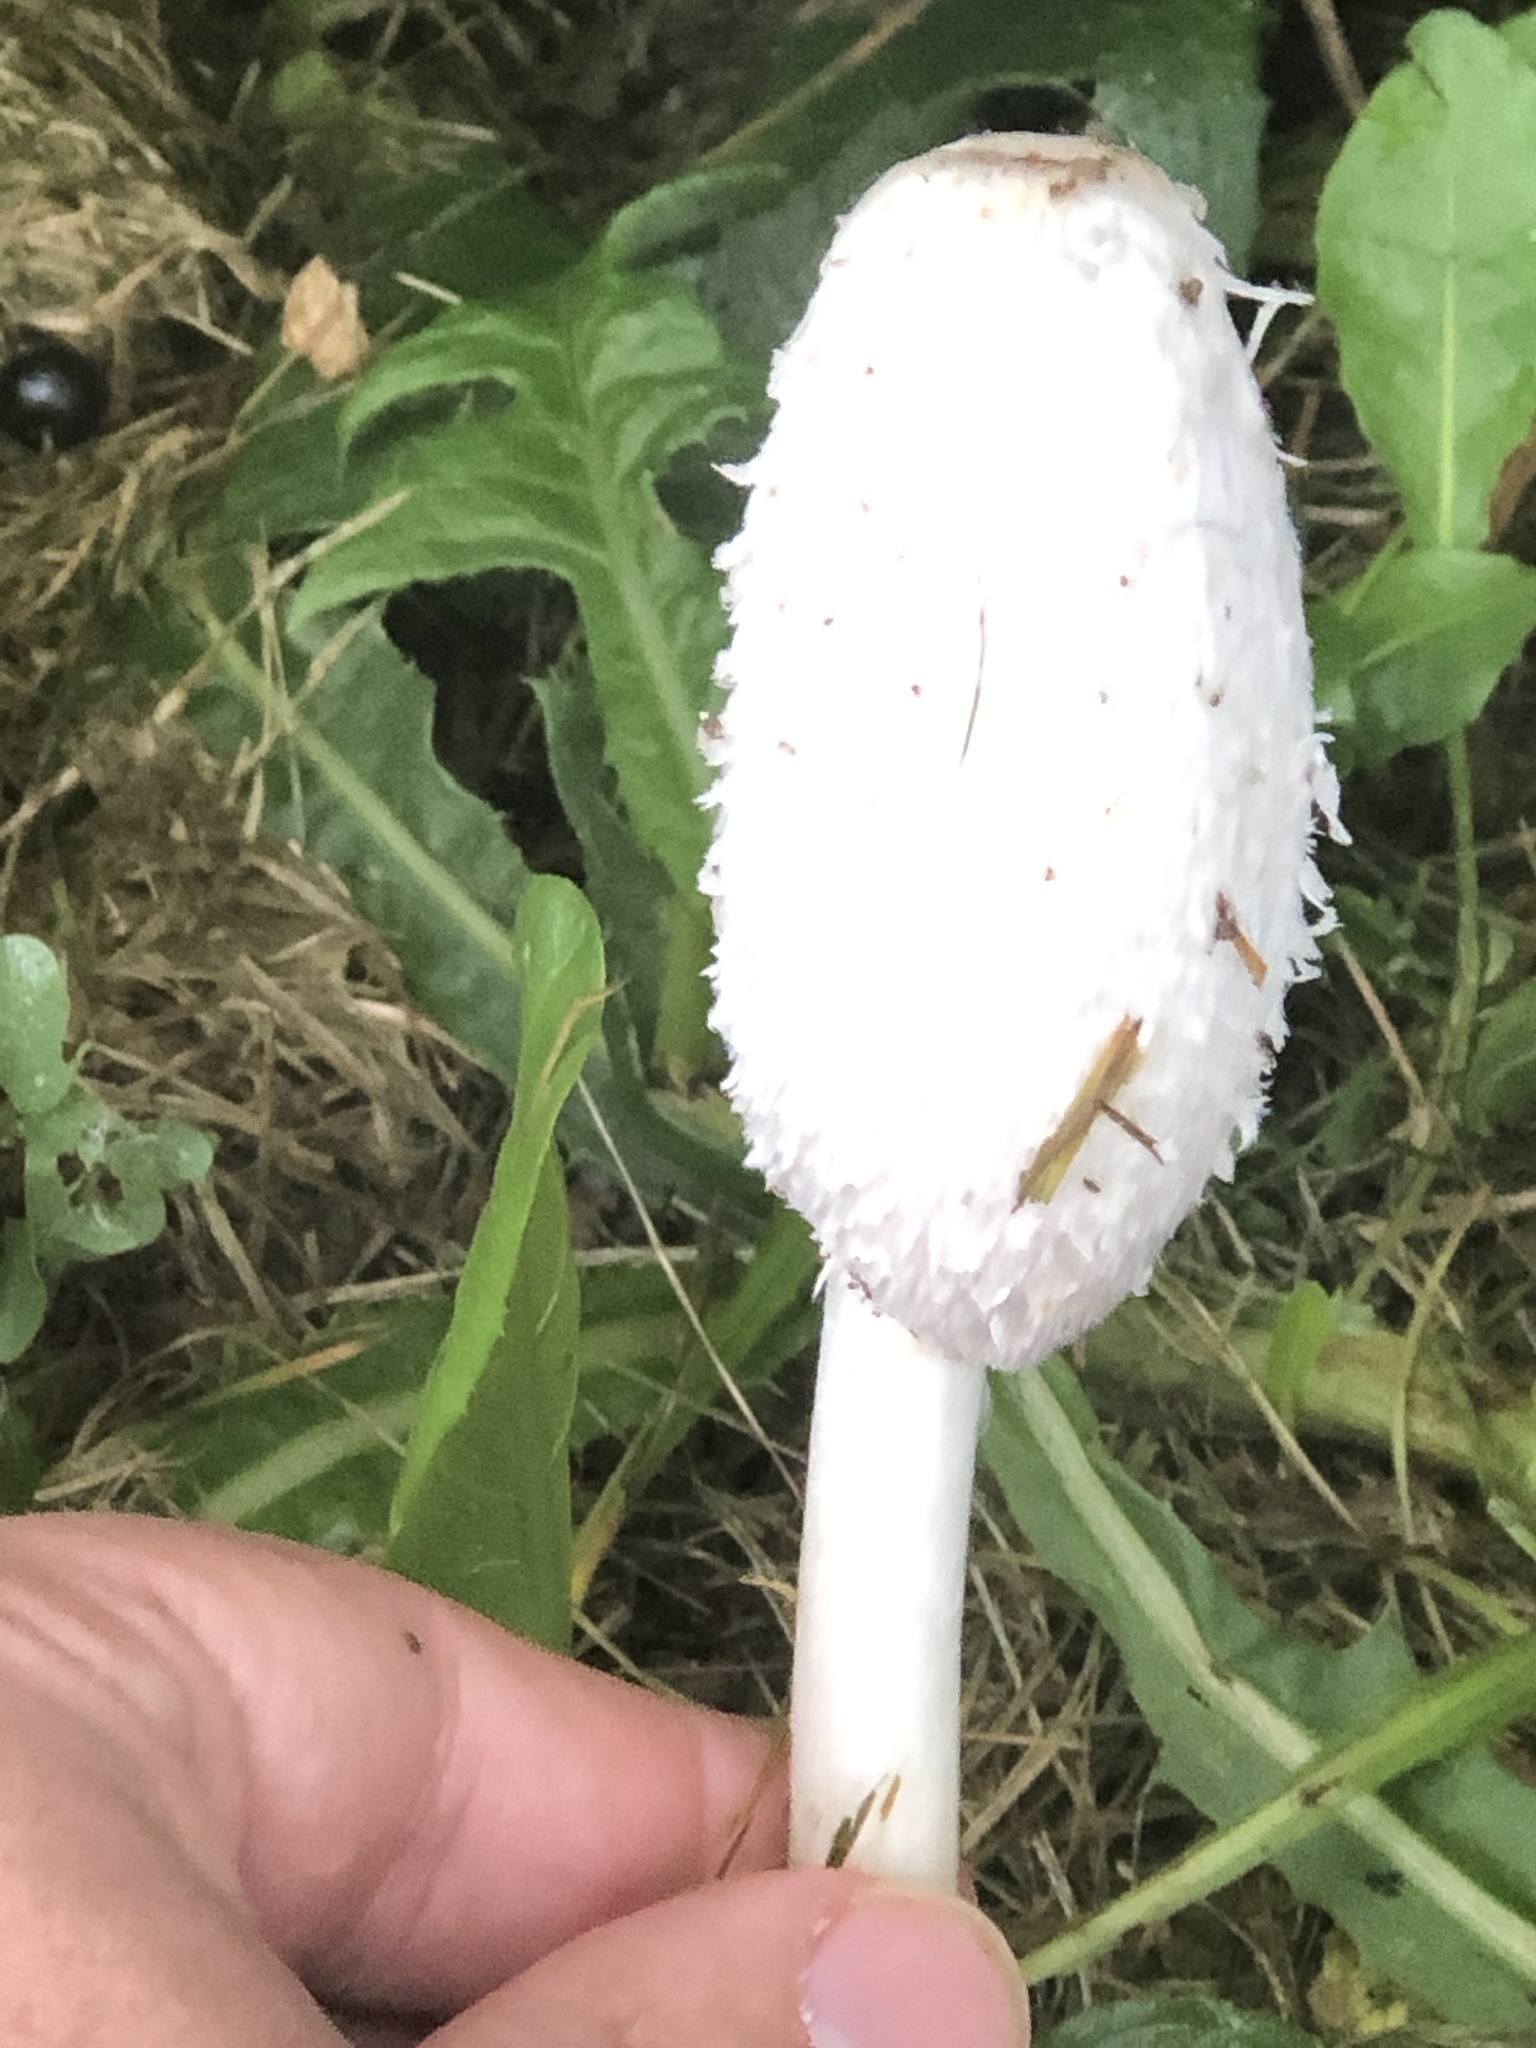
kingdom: Fungi
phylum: Basidiomycota
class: Agaricomycetes
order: Agaricales
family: Agaricaceae
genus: Coprinus
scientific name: Coprinus comatus
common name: Lawyer's wig
